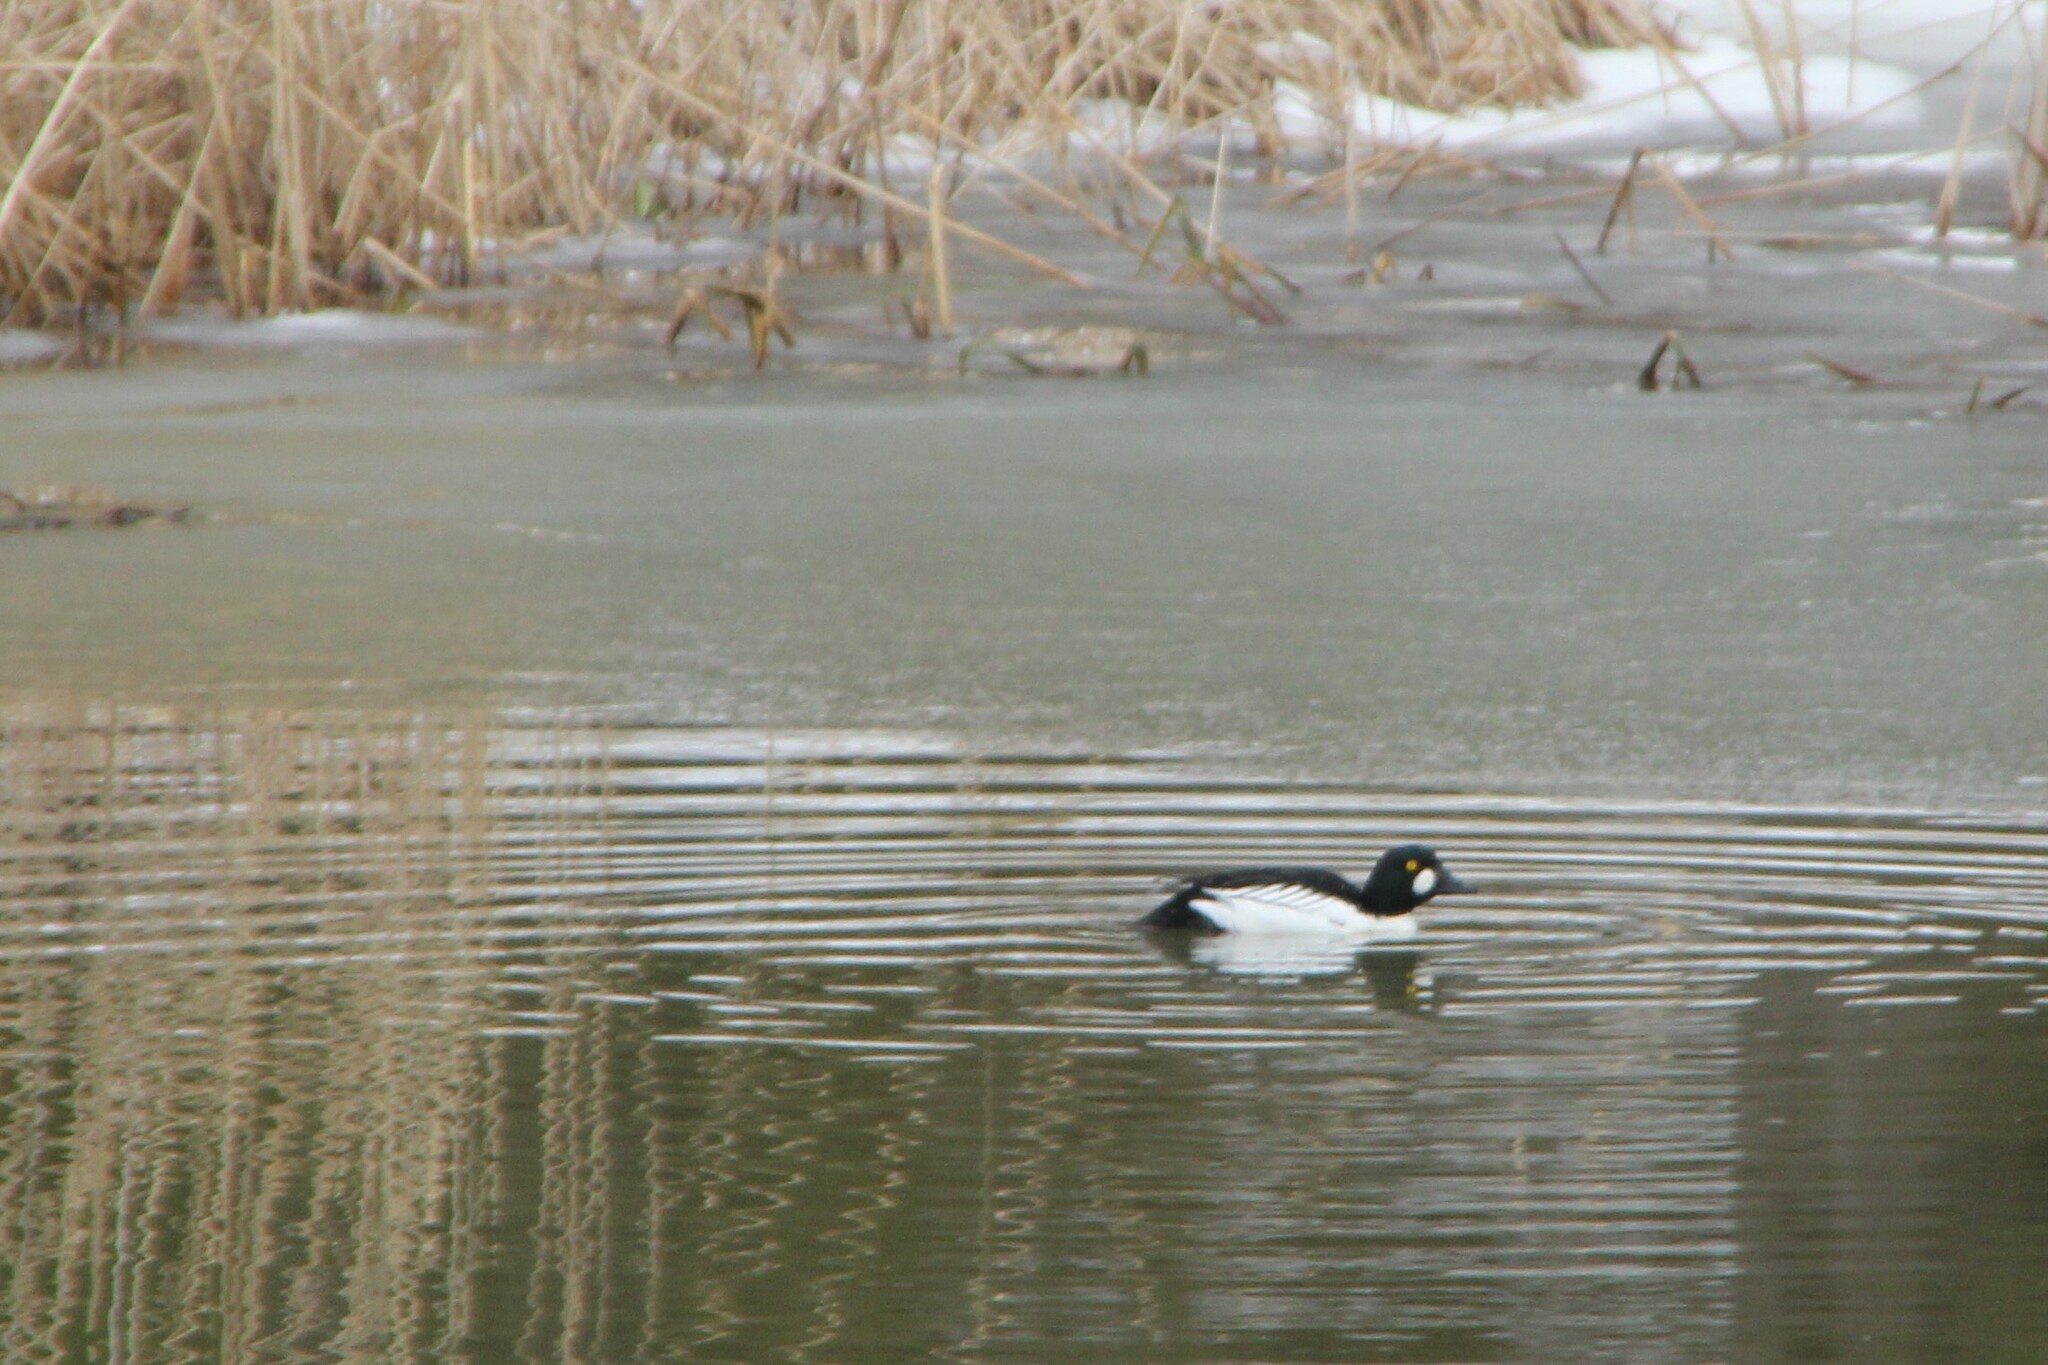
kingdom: Animalia
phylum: Chordata
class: Aves
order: Anseriformes
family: Anatidae
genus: Bucephala
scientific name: Bucephala clangula
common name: Common goldeneye
